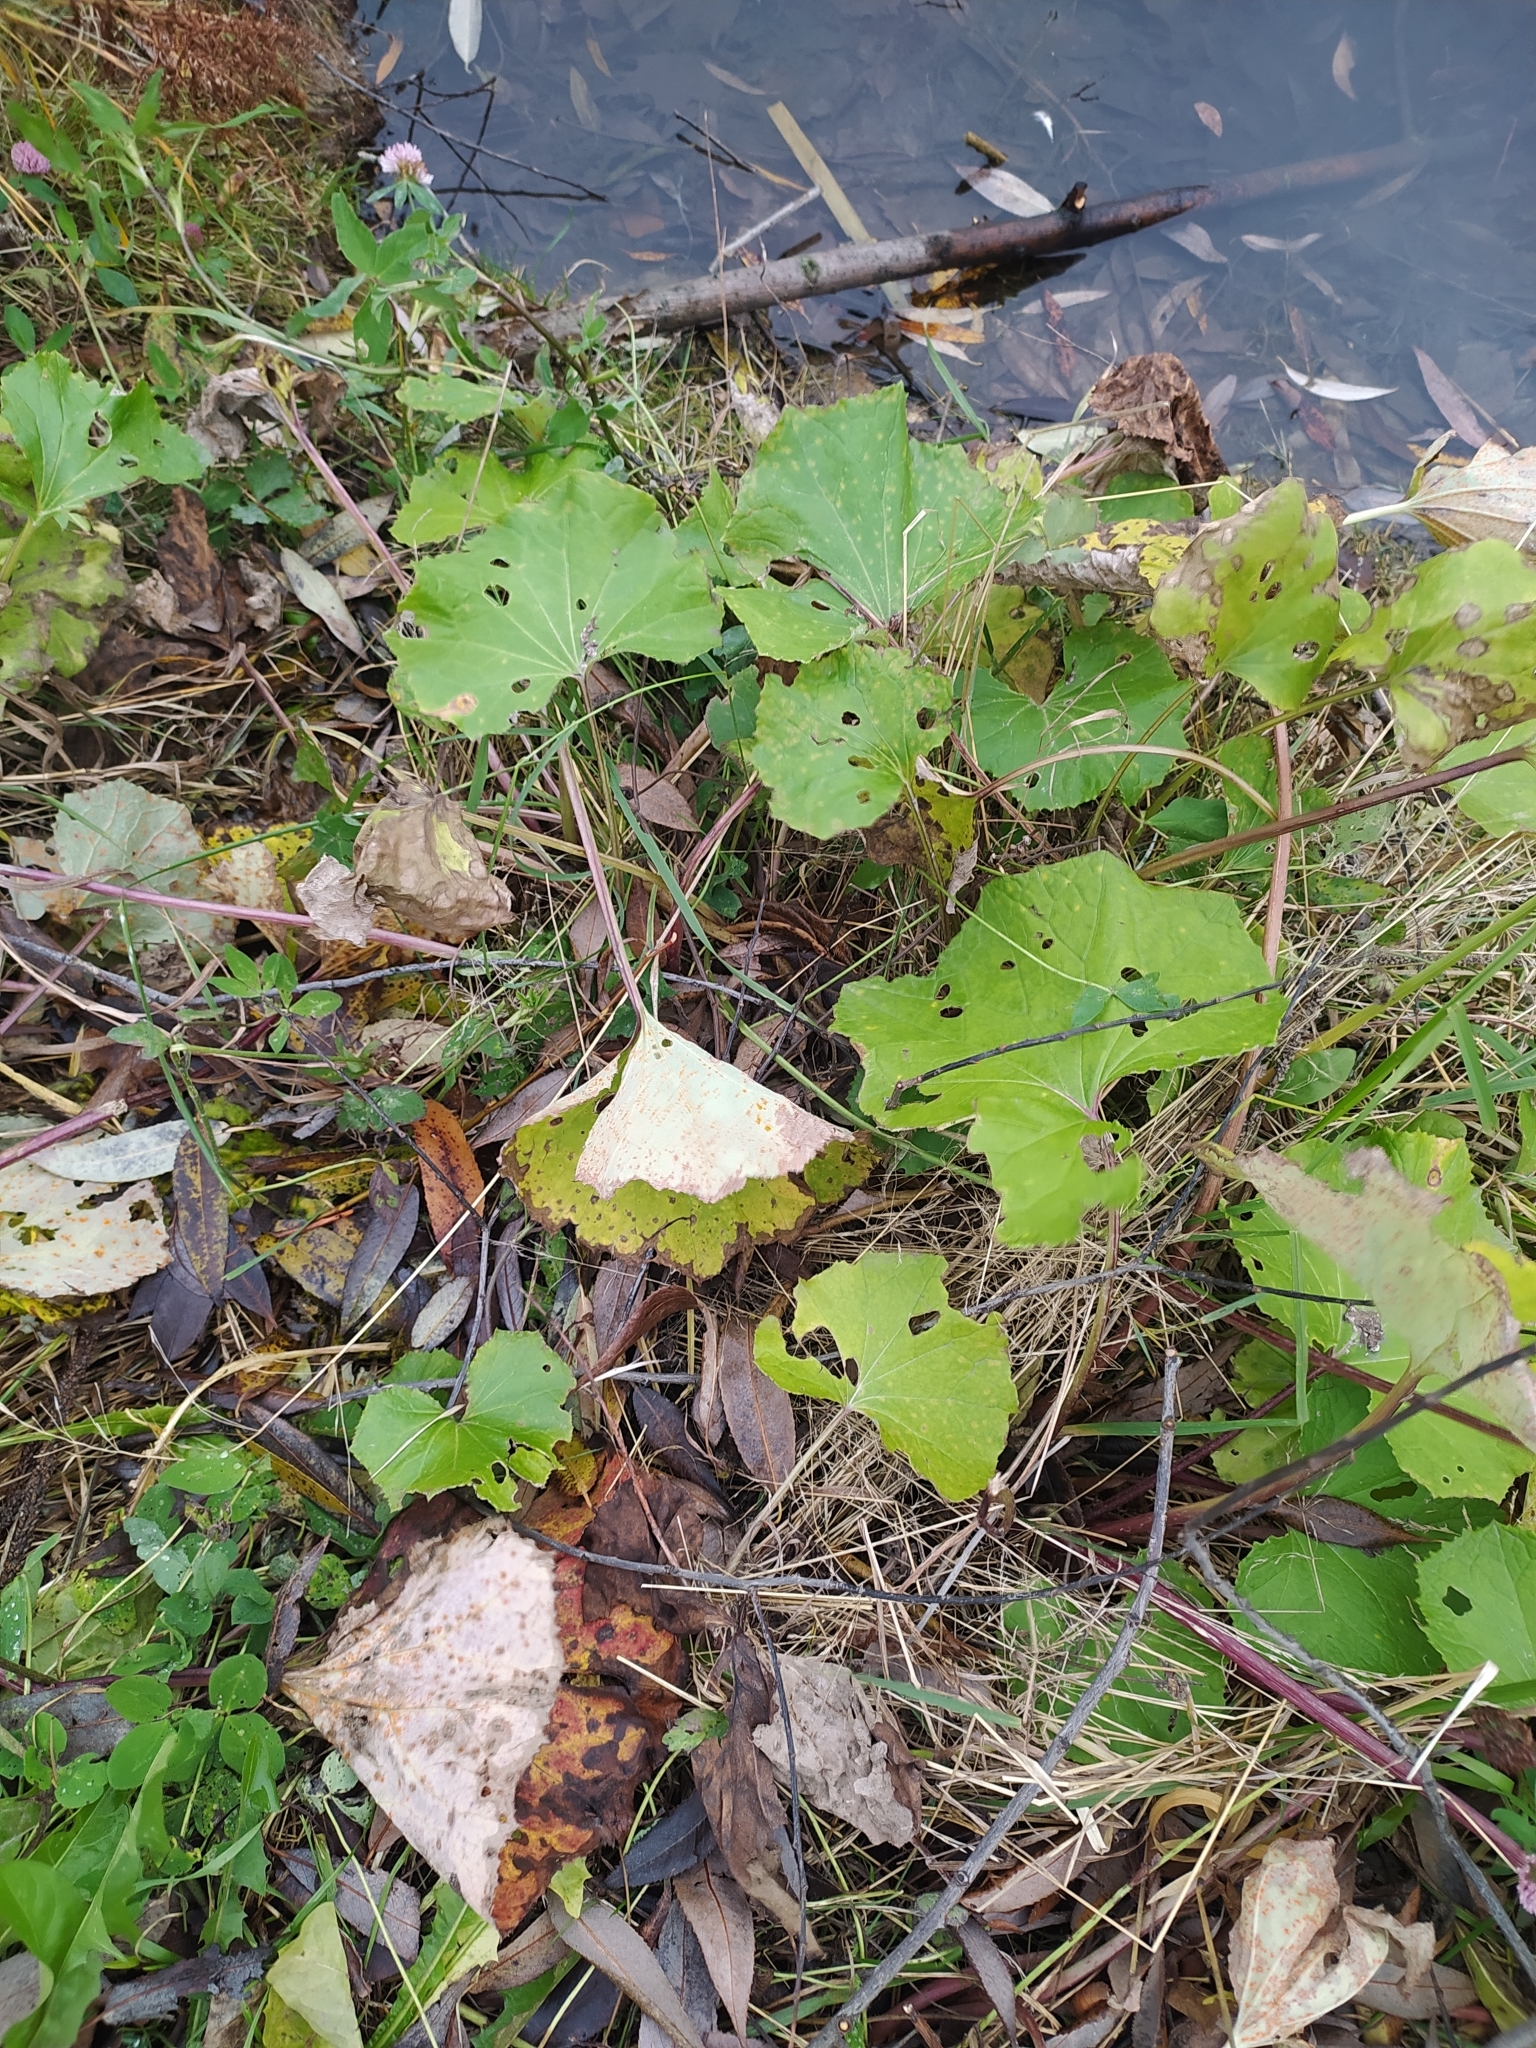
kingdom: Plantae
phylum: Tracheophyta
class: Magnoliopsida
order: Asterales
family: Asteraceae
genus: Tussilago
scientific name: Tussilago farfara
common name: Coltsfoot
